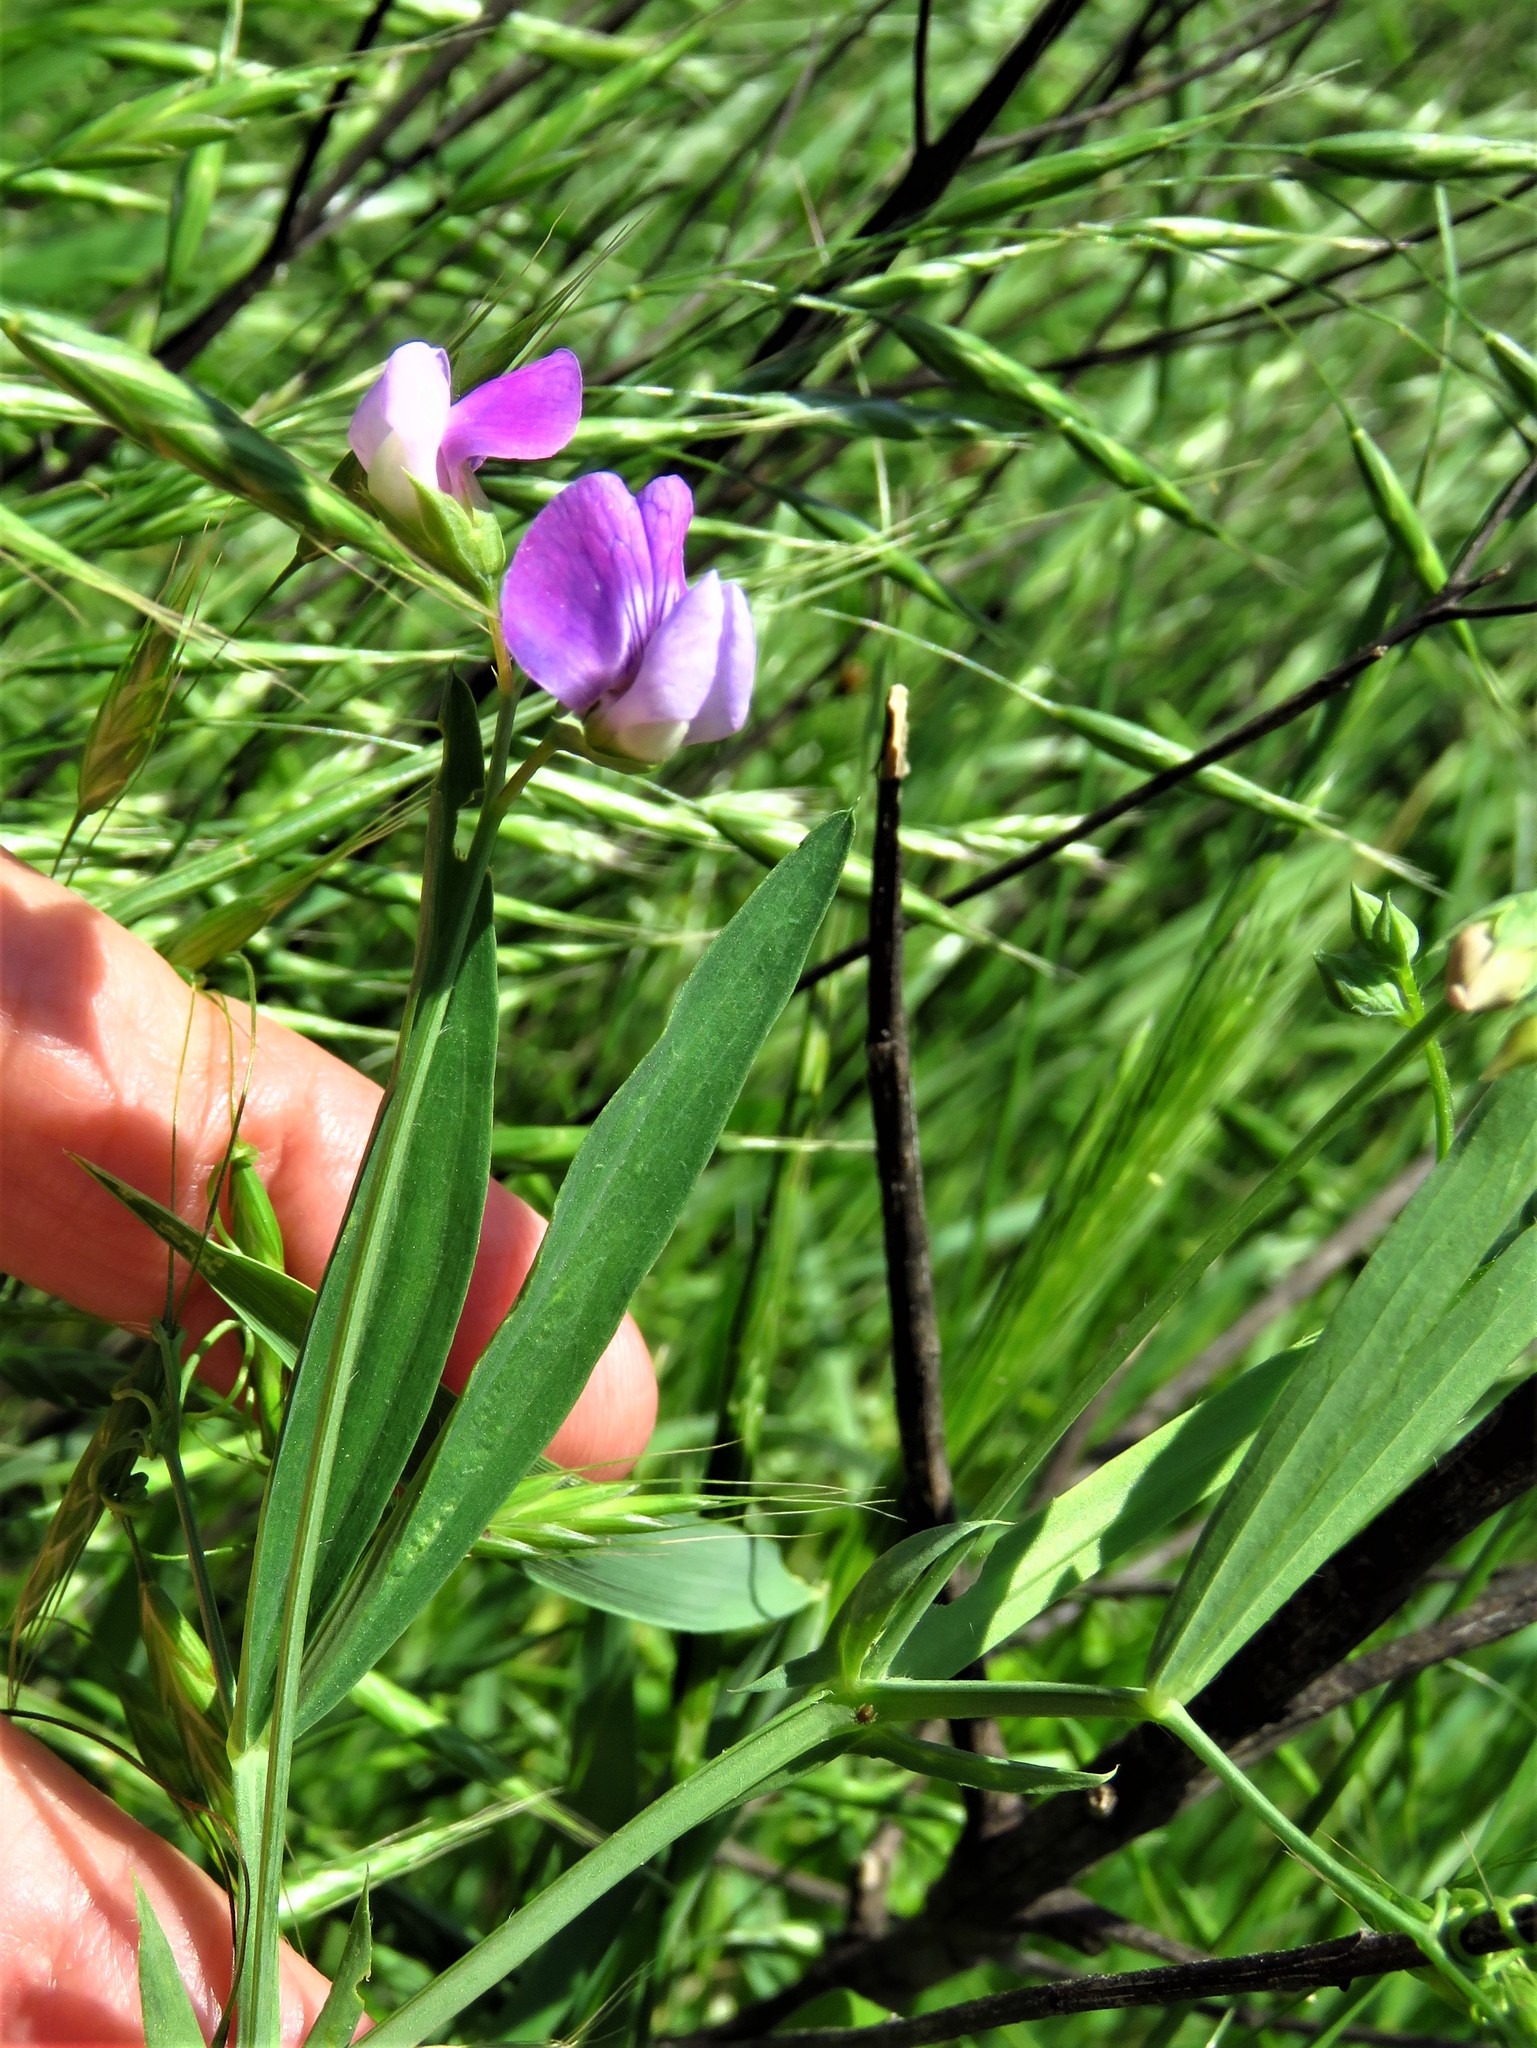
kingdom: Plantae
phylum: Tracheophyta
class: Magnoliopsida
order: Fabales
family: Fabaceae
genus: Lathyrus
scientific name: Lathyrus hirsutus
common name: Hairy vetchling
